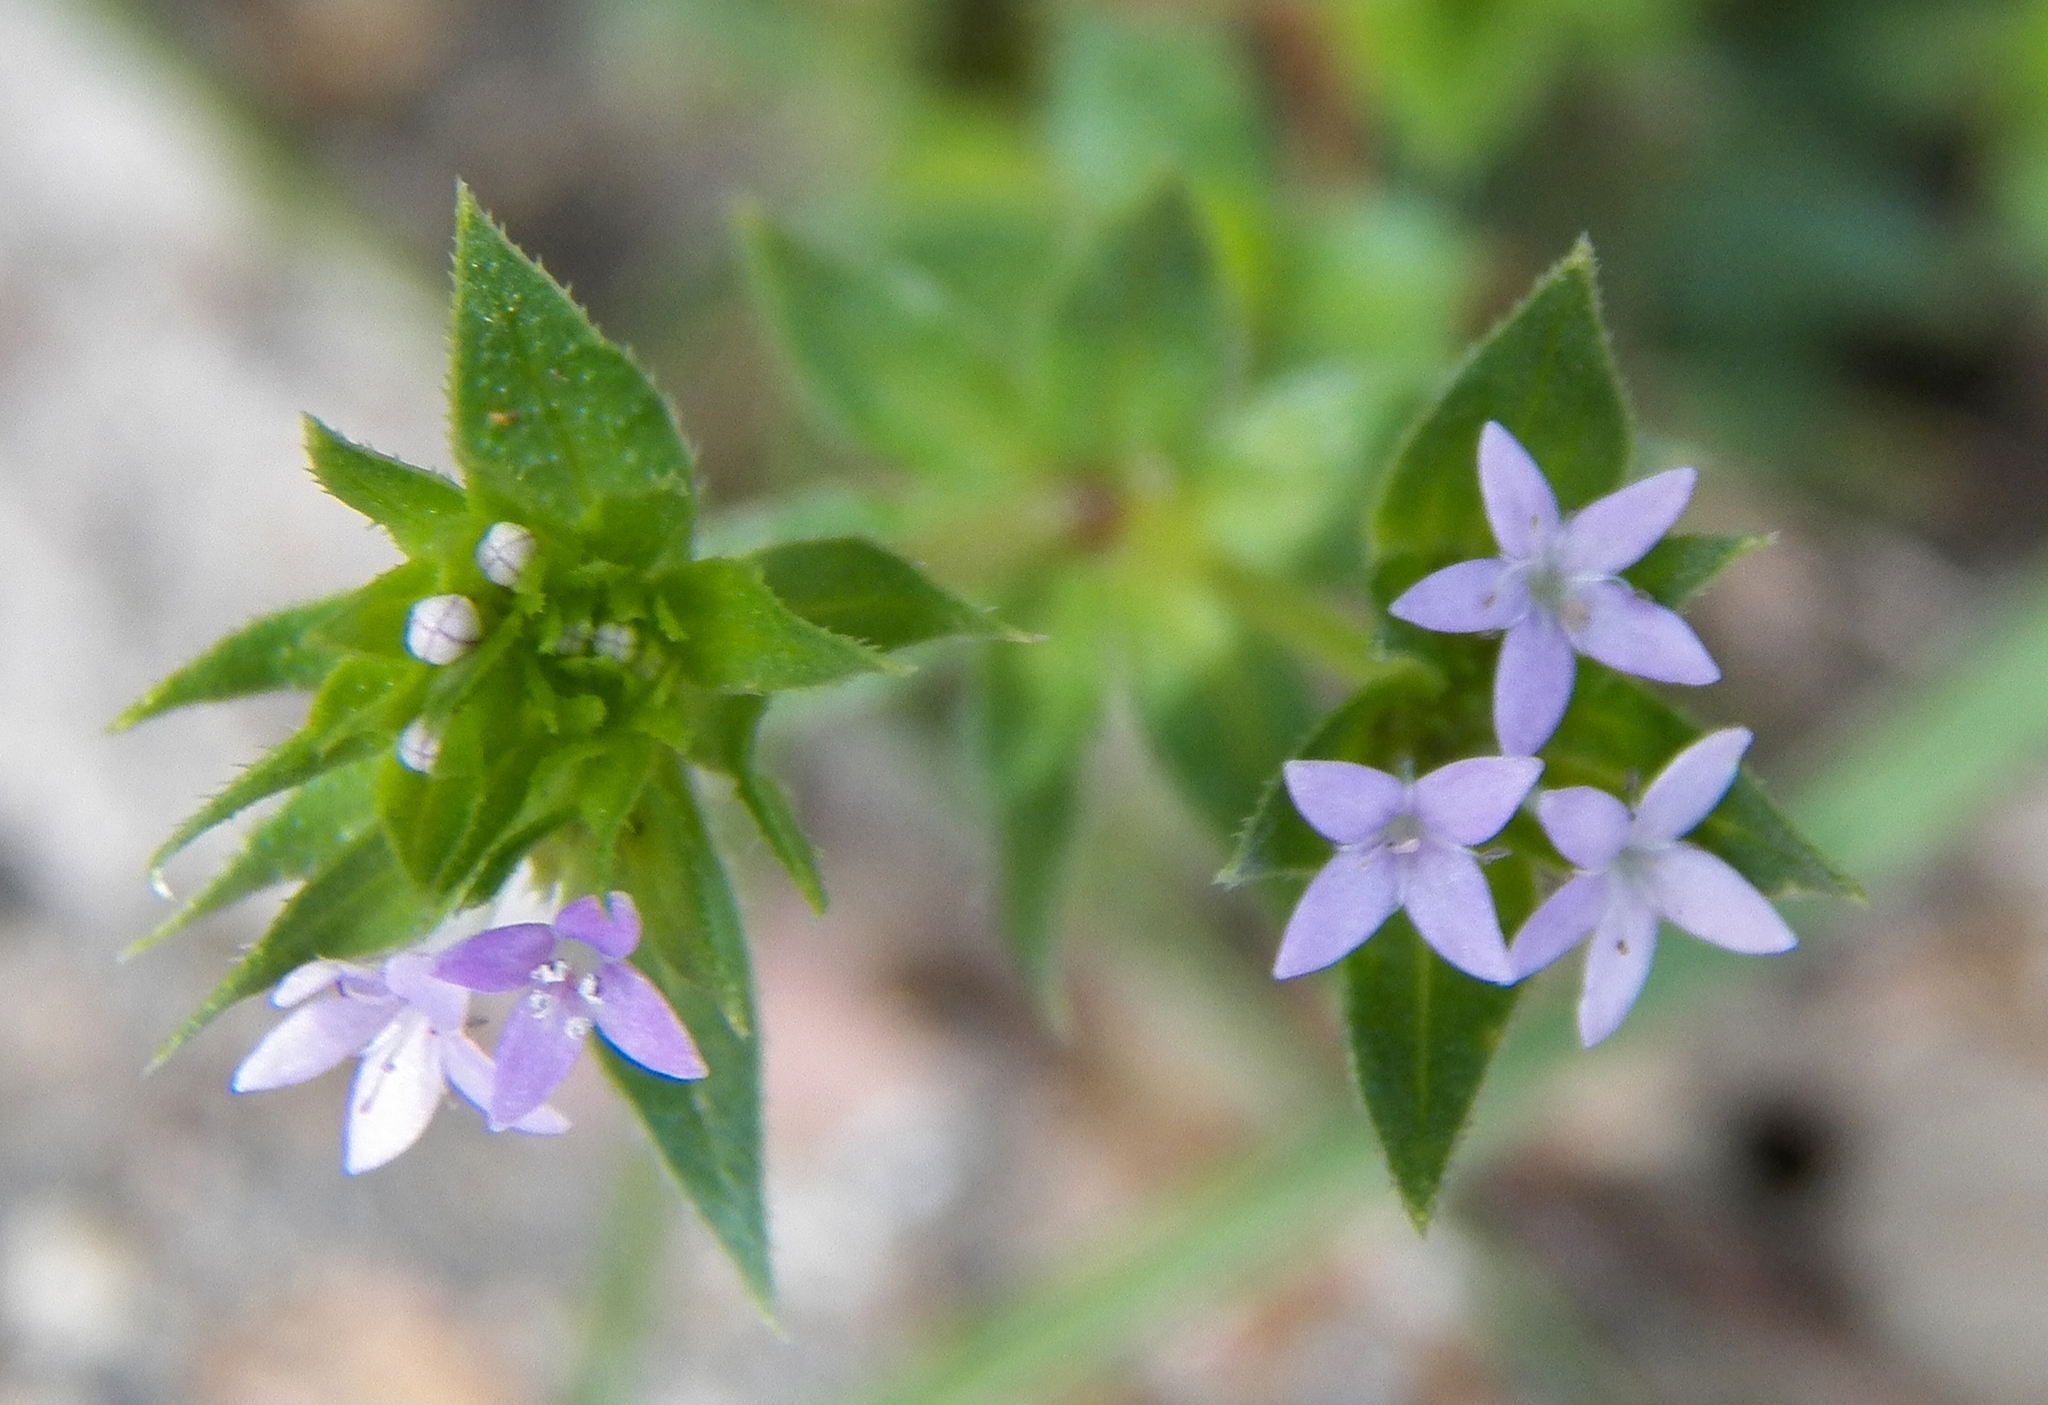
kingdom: Plantae
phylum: Tracheophyta
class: Magnoliopsida
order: Gentianales
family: Rubiaceae
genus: Sherardia
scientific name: Sherardia arvensis
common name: Field madder
